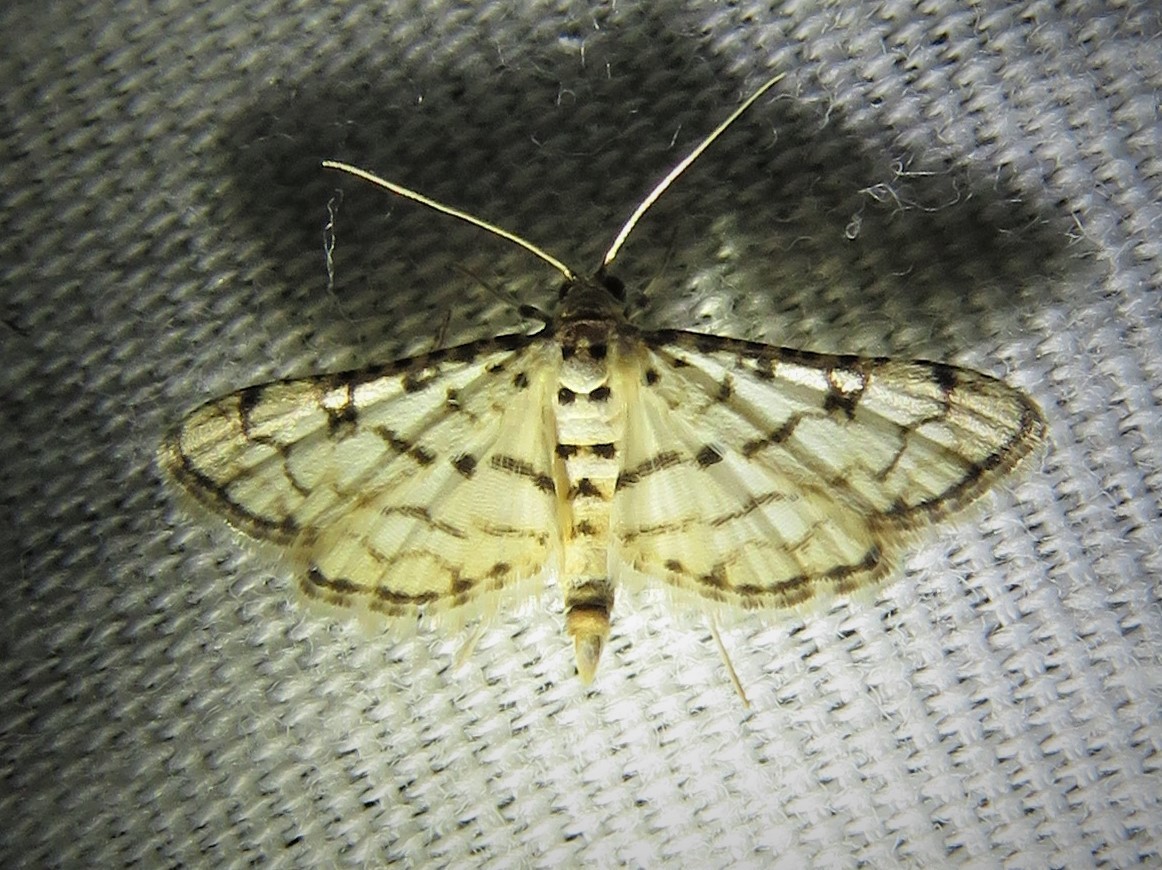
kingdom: Animalia
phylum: Arthropoda
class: Insecta
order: Lepidoptera
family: Crambidae
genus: Hileithia
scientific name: Hileithia rehamalis
